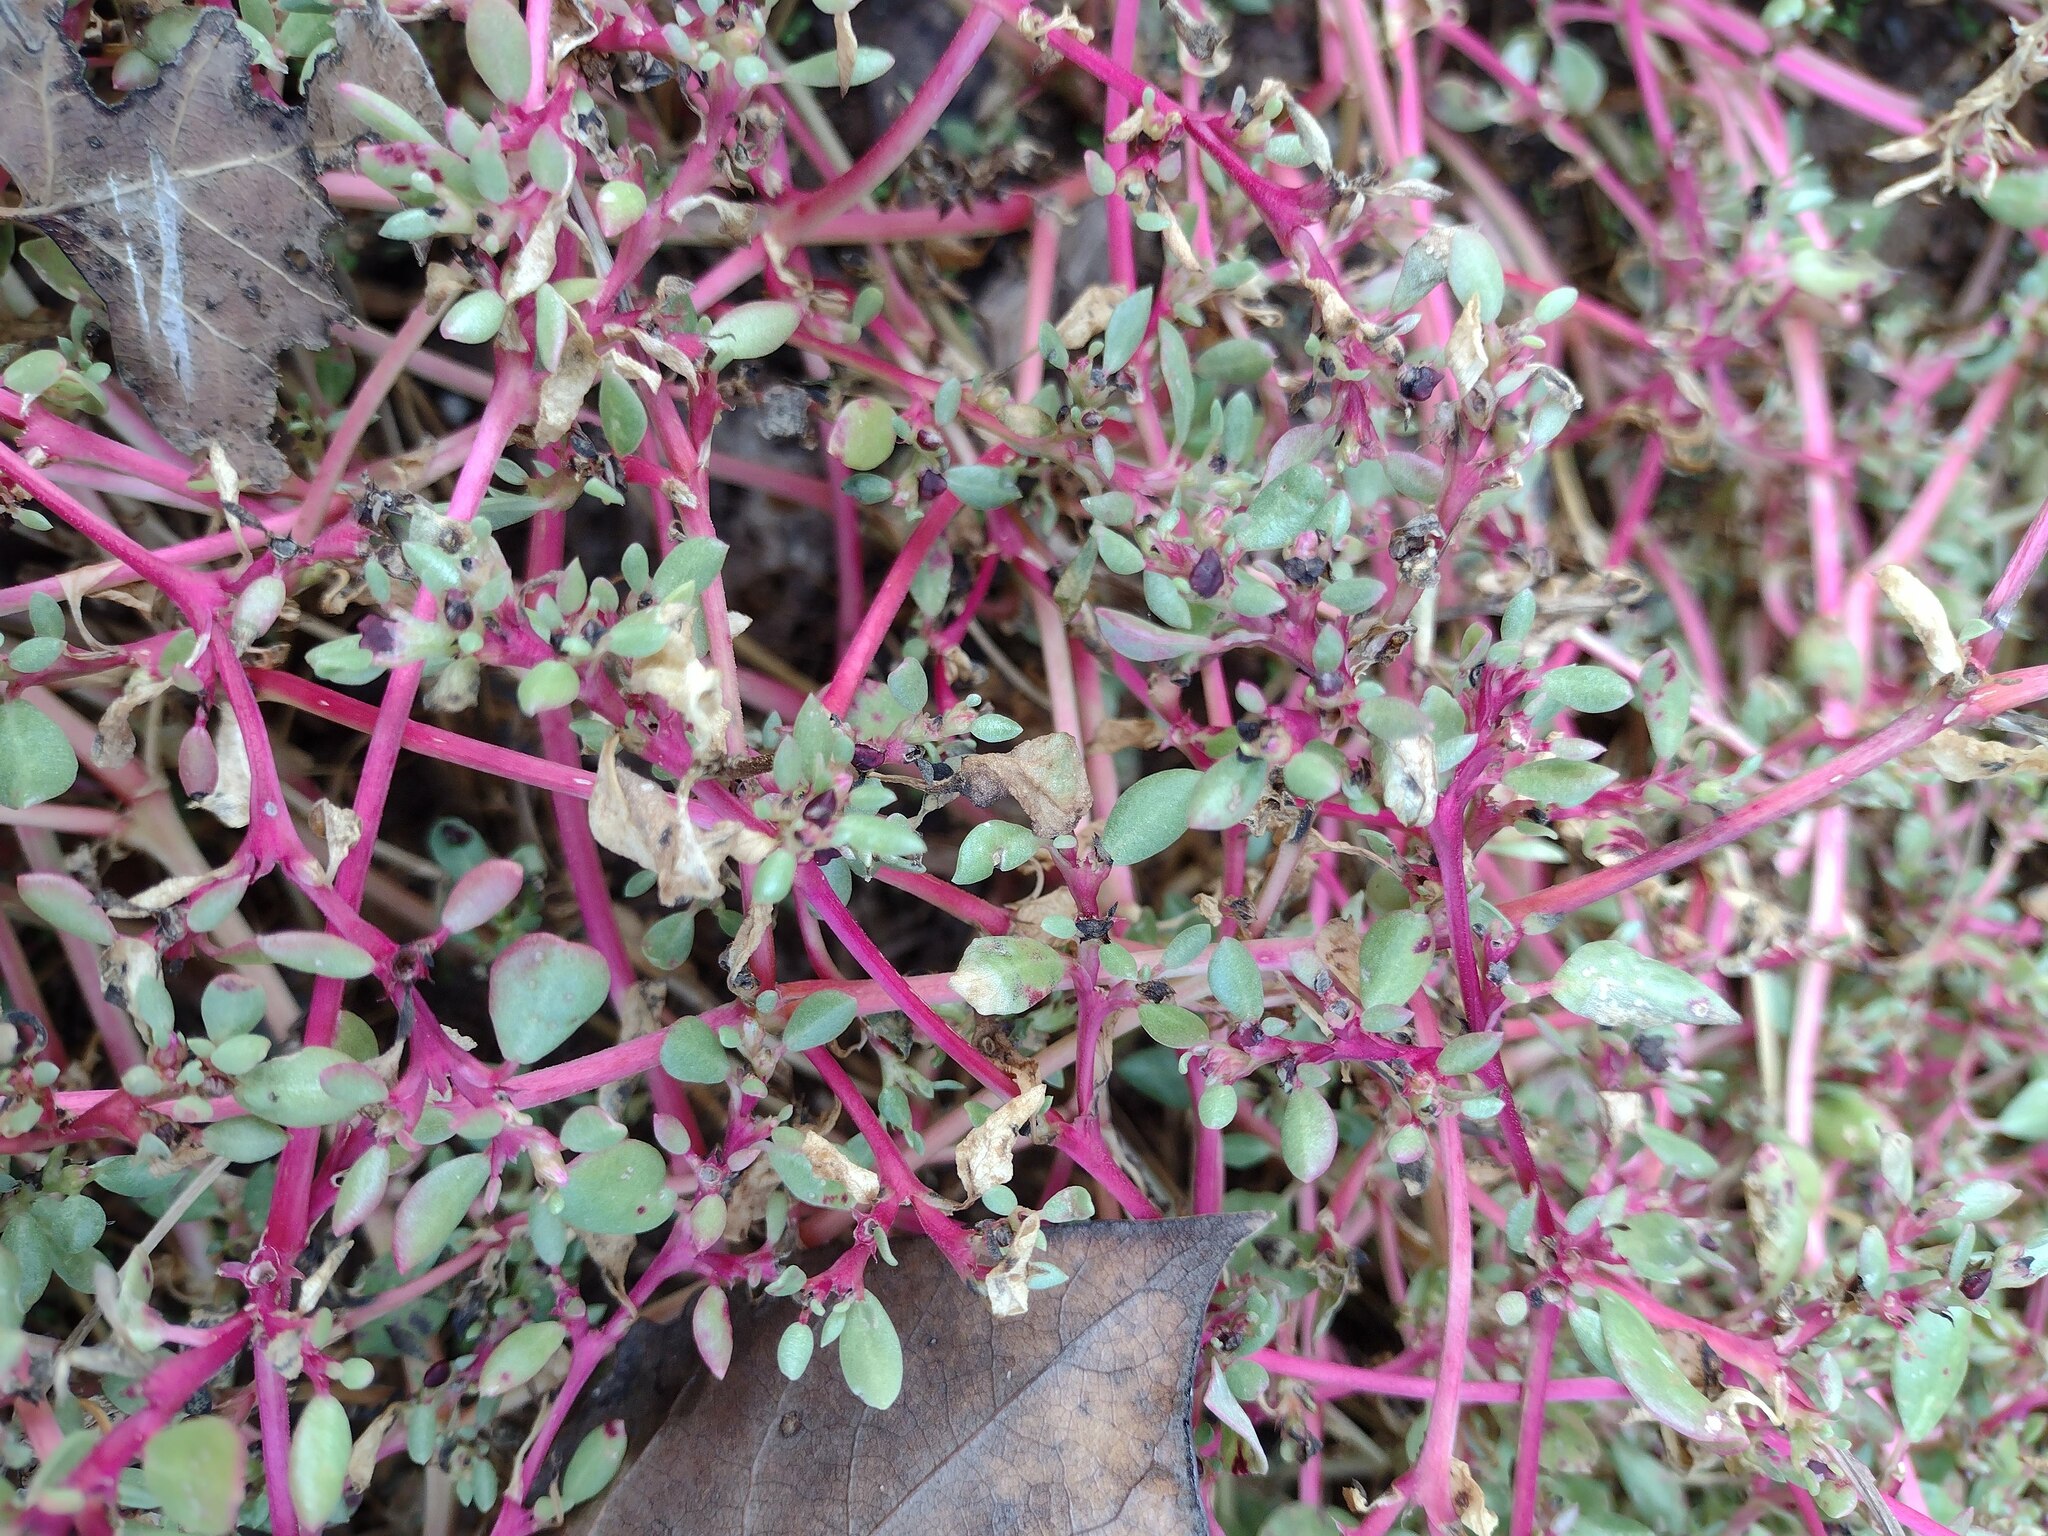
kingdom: Plantae
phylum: Tracheophyta
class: Magnoliopsida
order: Caryophyllales
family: Aizoaceae
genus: Trianthema
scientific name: Trianthema portulacastrum
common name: Desert horsepurslane
